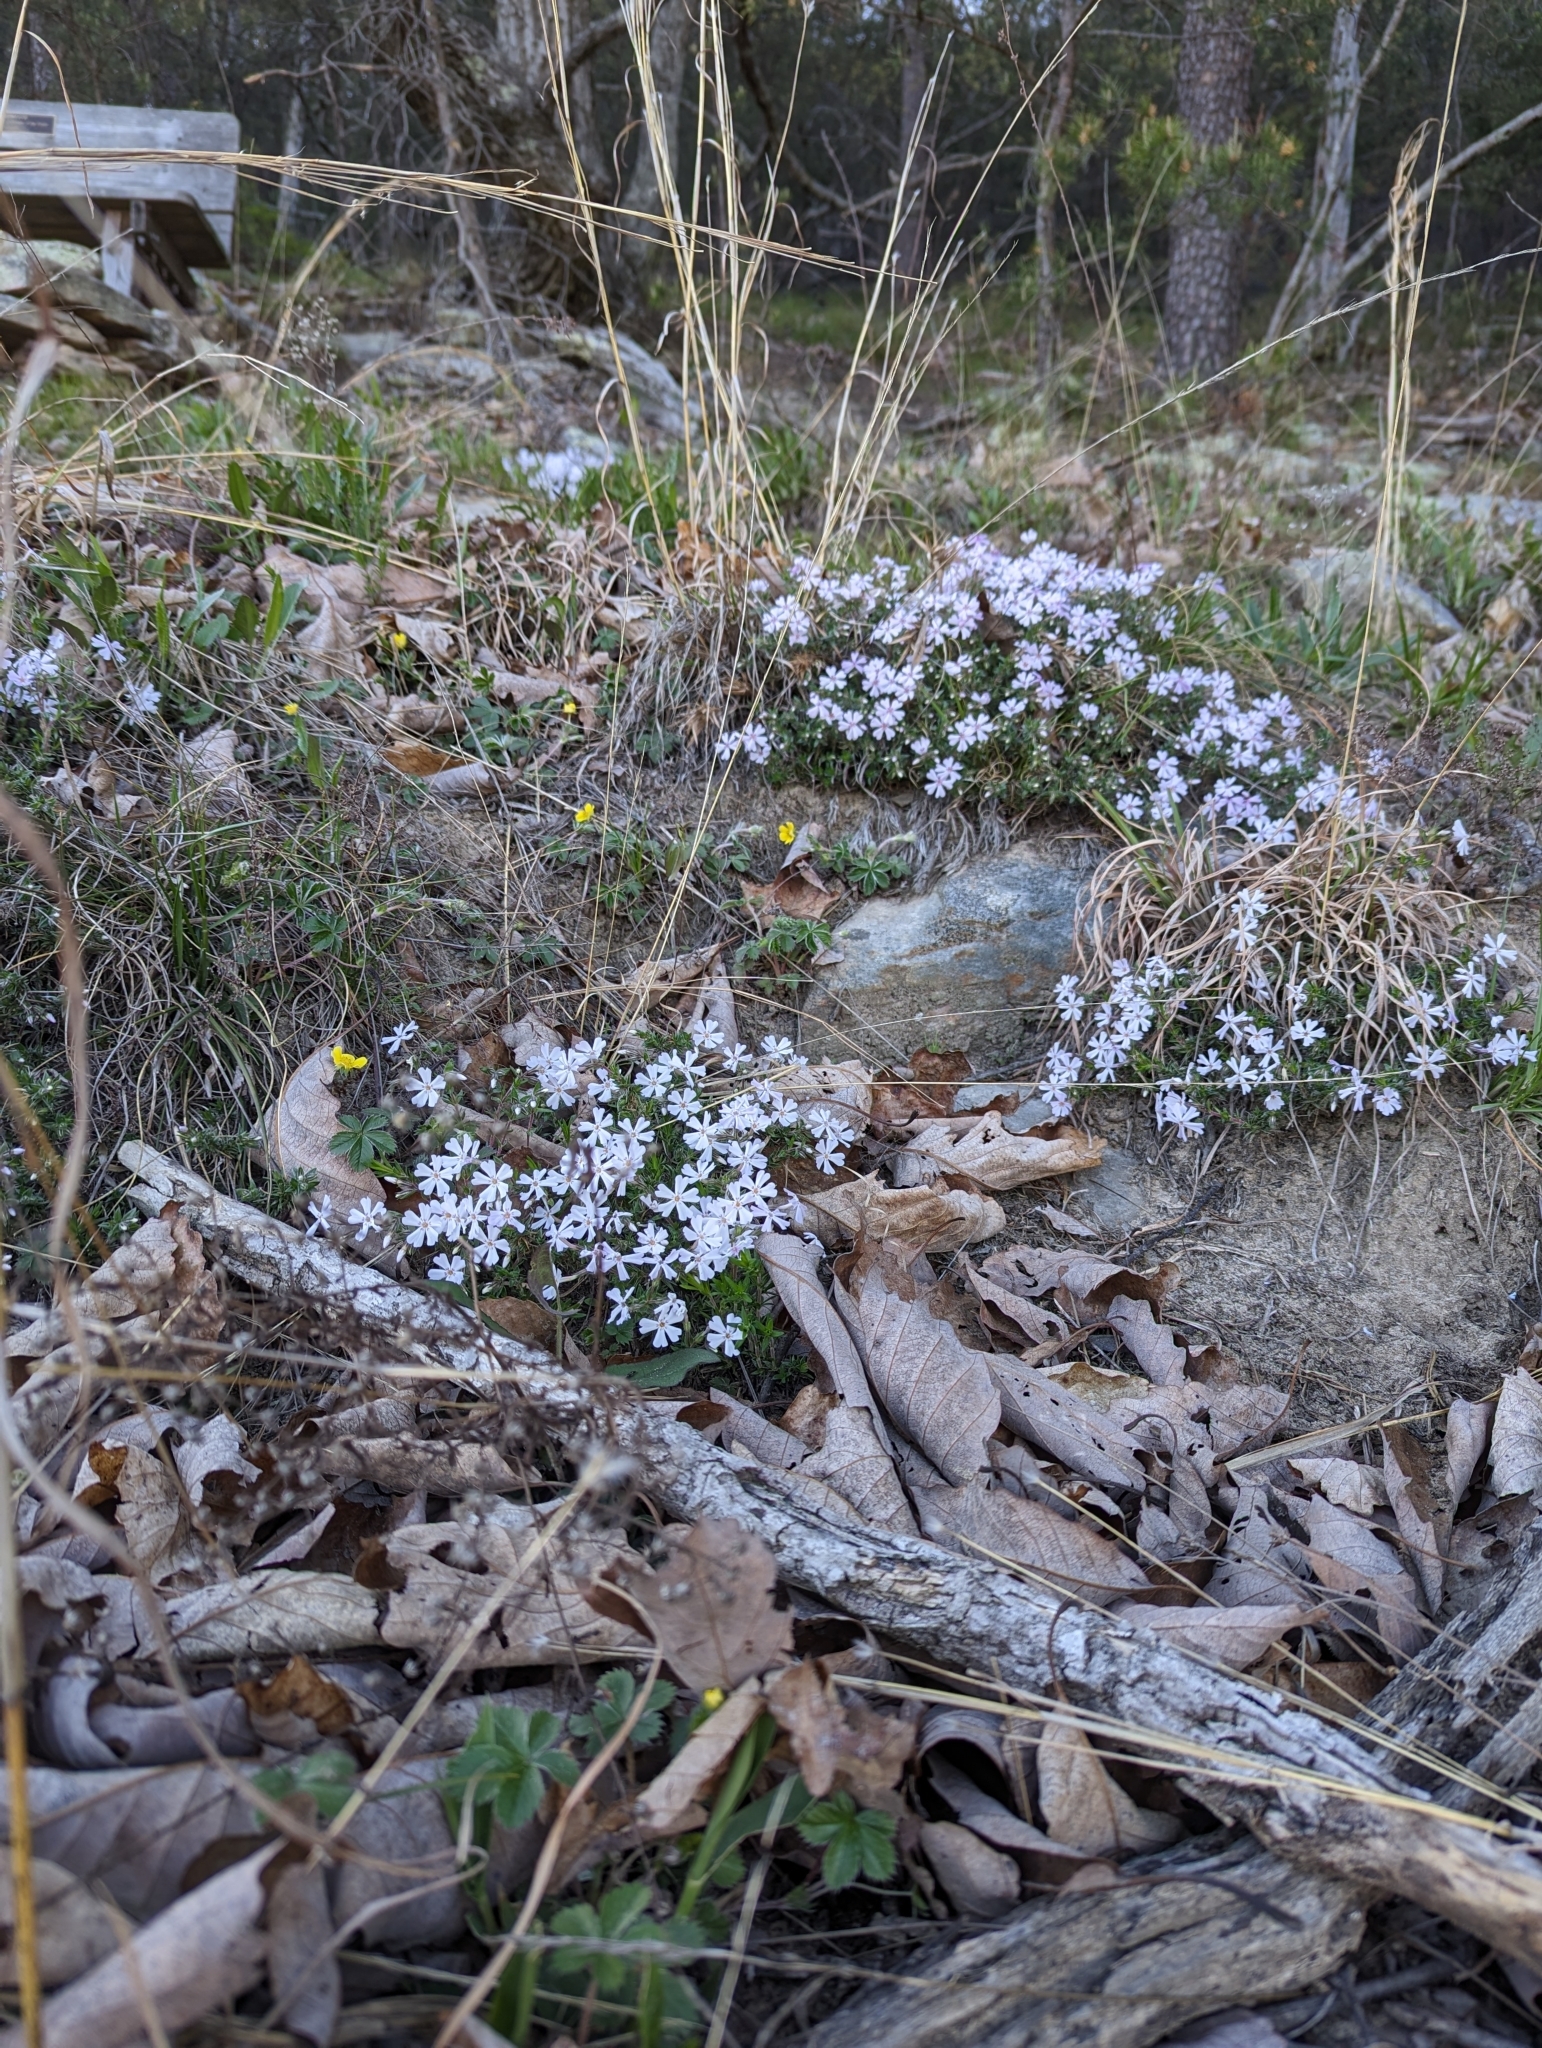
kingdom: Plantae
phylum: Tracheophyta
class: Magnoliopsida
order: Ericales
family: Polemoniaceae
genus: Phlox
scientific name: Phlox subulata
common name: Moss phlox
